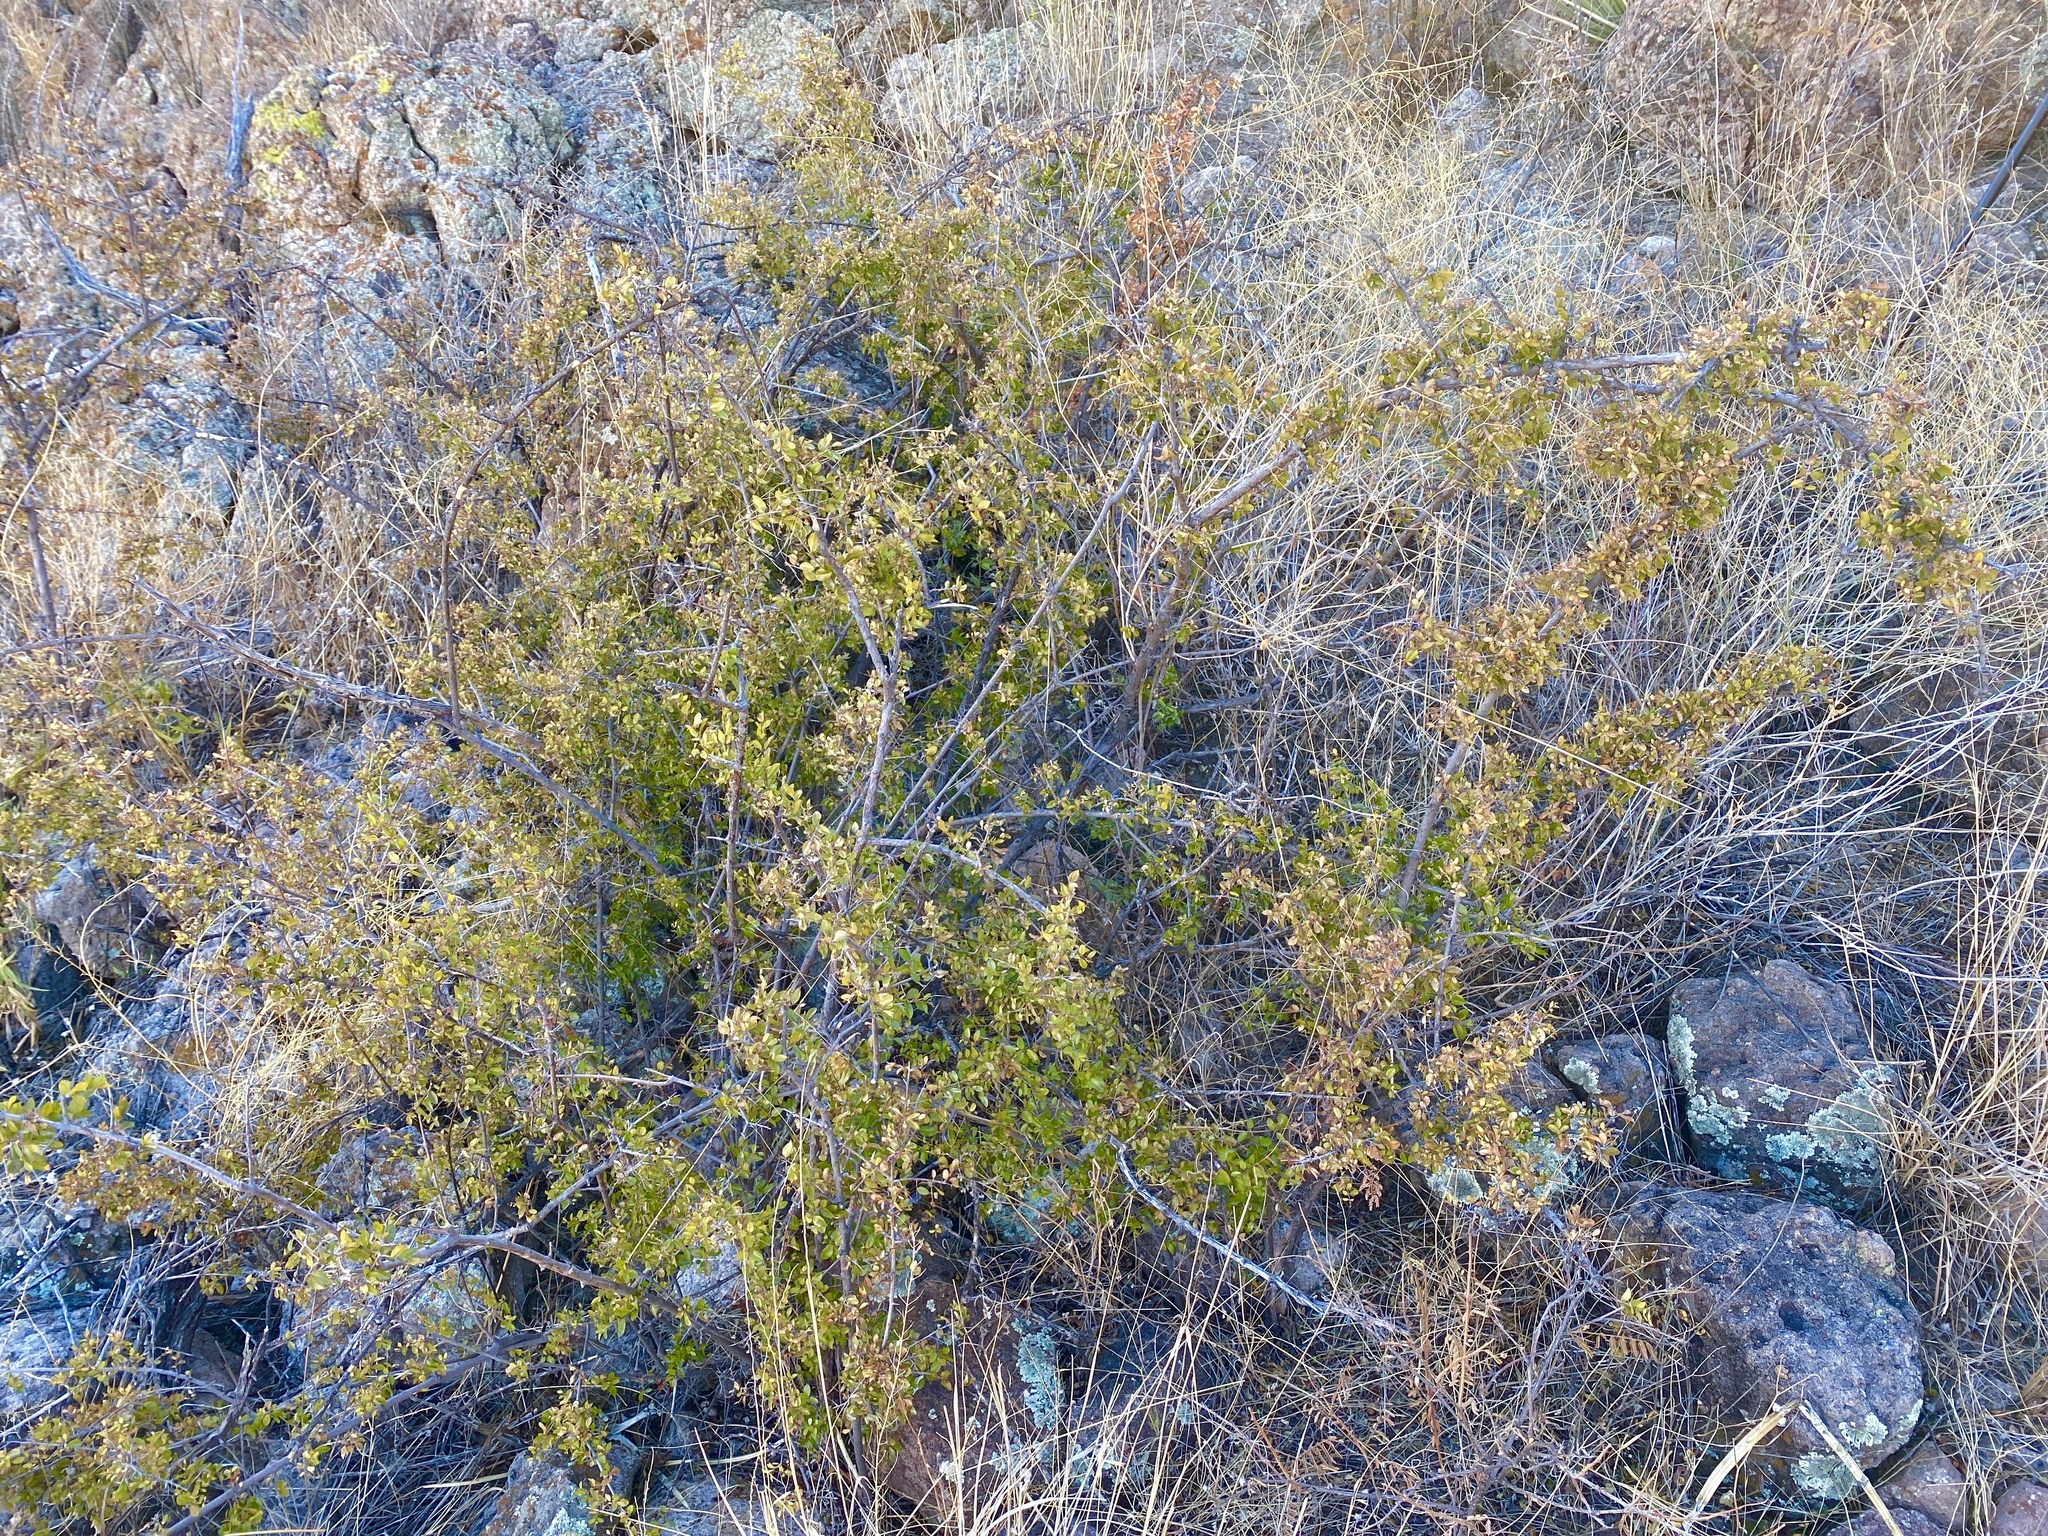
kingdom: Plantae
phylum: Tracheophyta
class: Magnoliopsida
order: Rosales
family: Rhamnaceae
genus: Sageretia
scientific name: Sageretia wrightii
